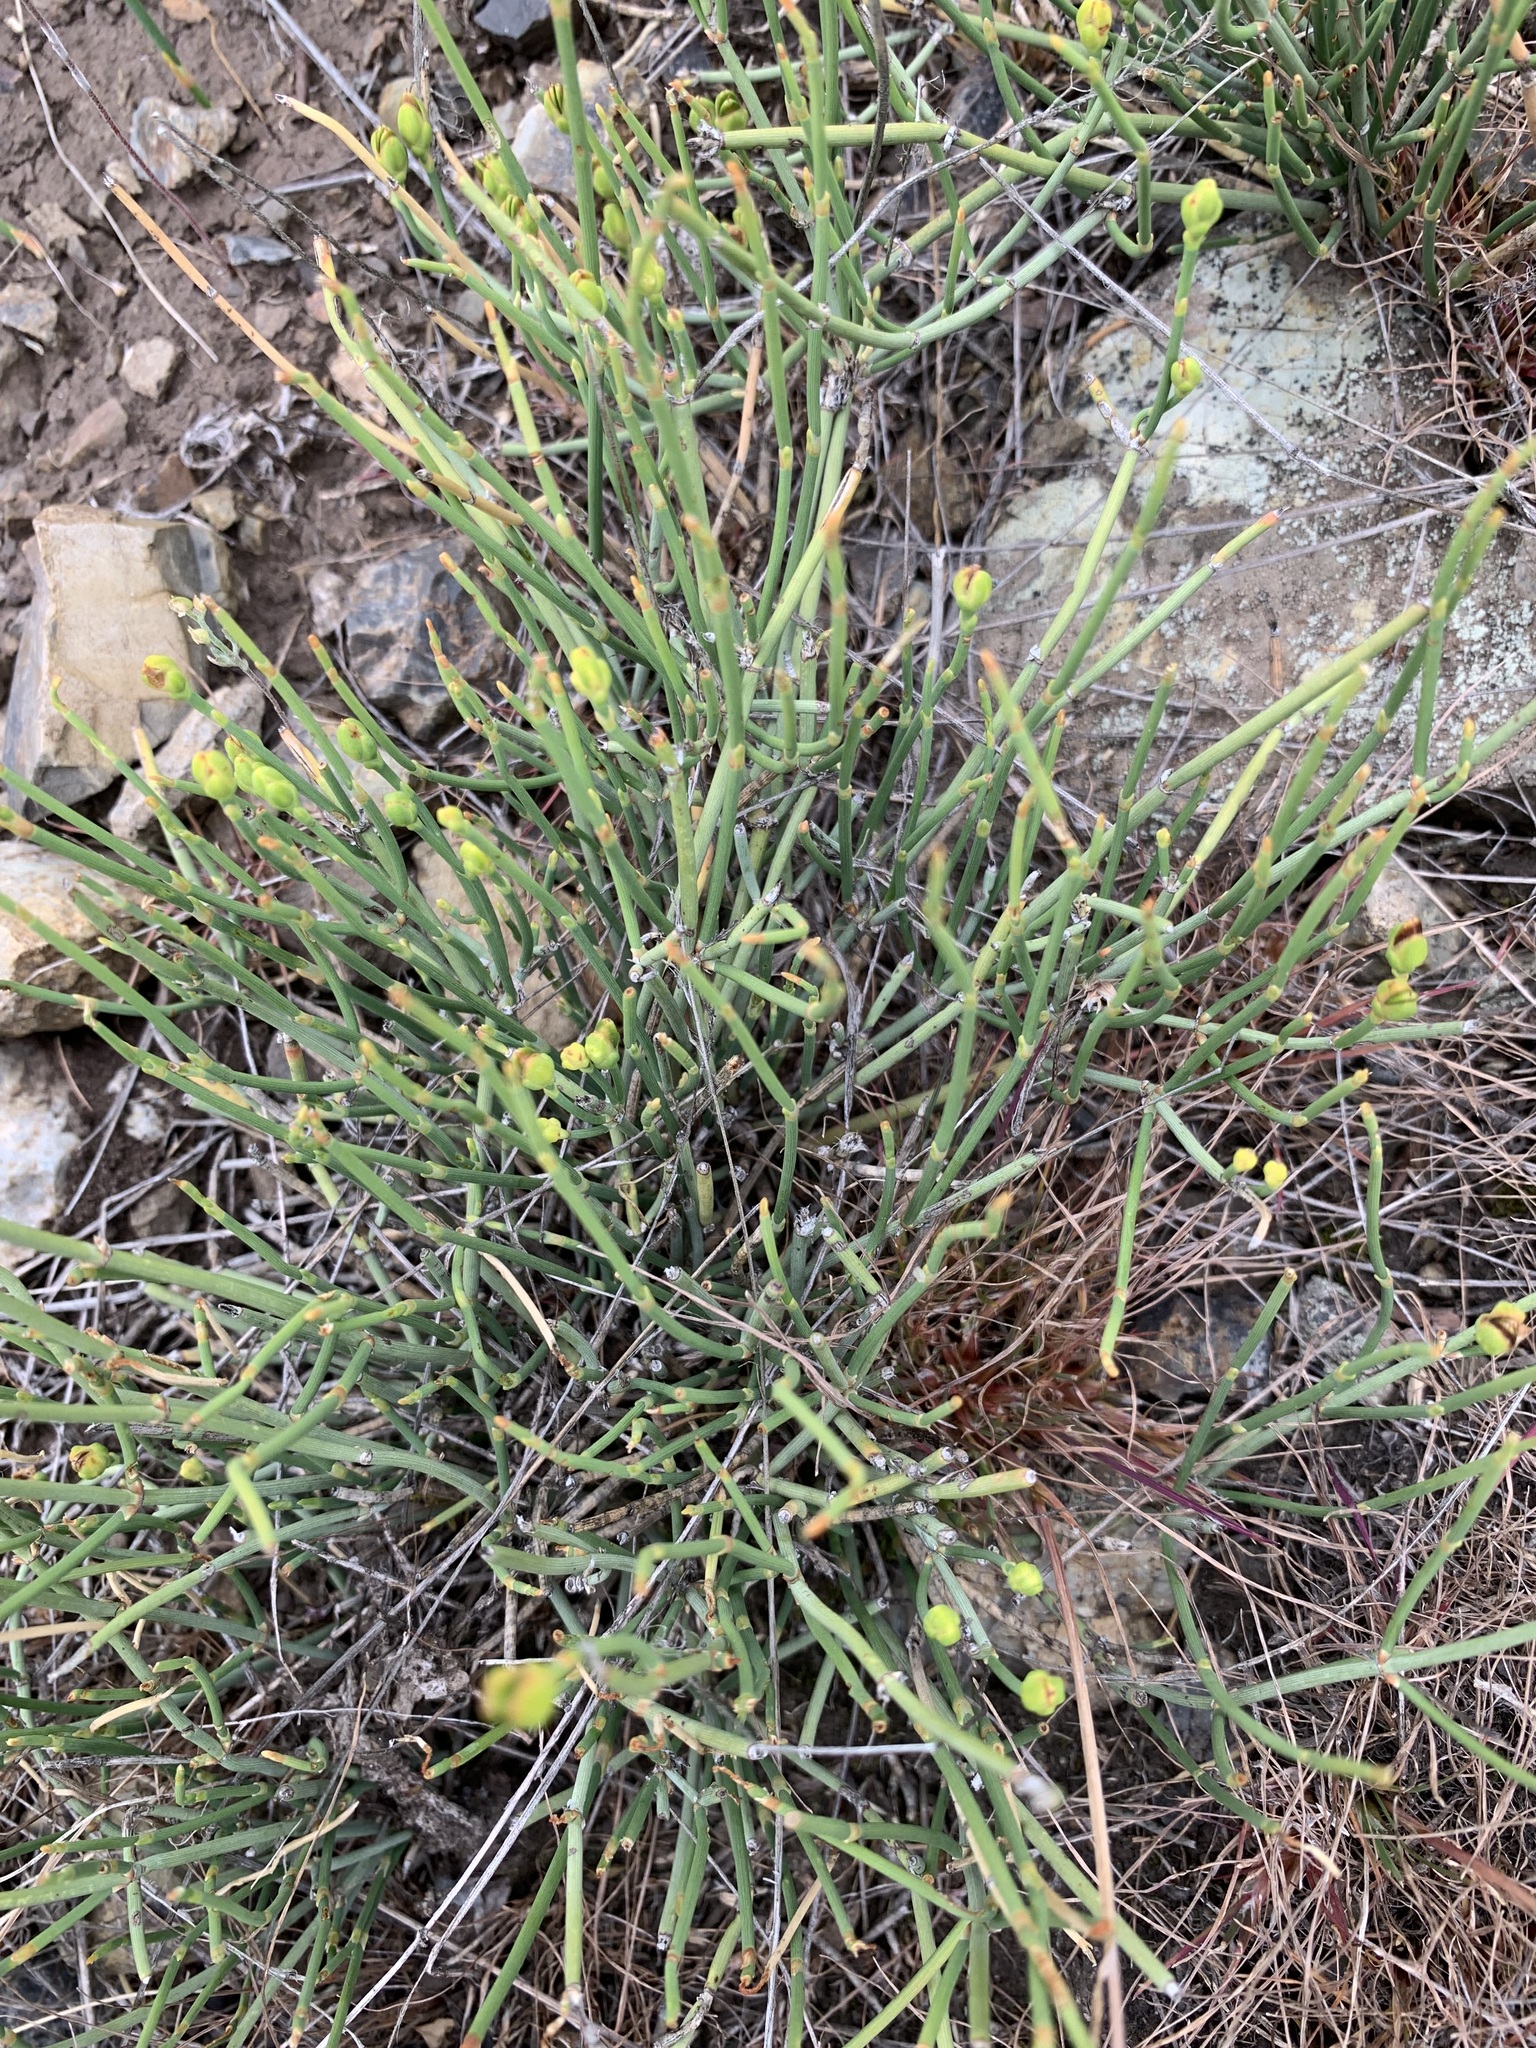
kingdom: Plantae
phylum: Tracheophyta
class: Gnetopsida
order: Ephedrales
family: Ephedraceae
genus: Ephedra
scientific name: Ephedra distachya
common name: Sea grape
